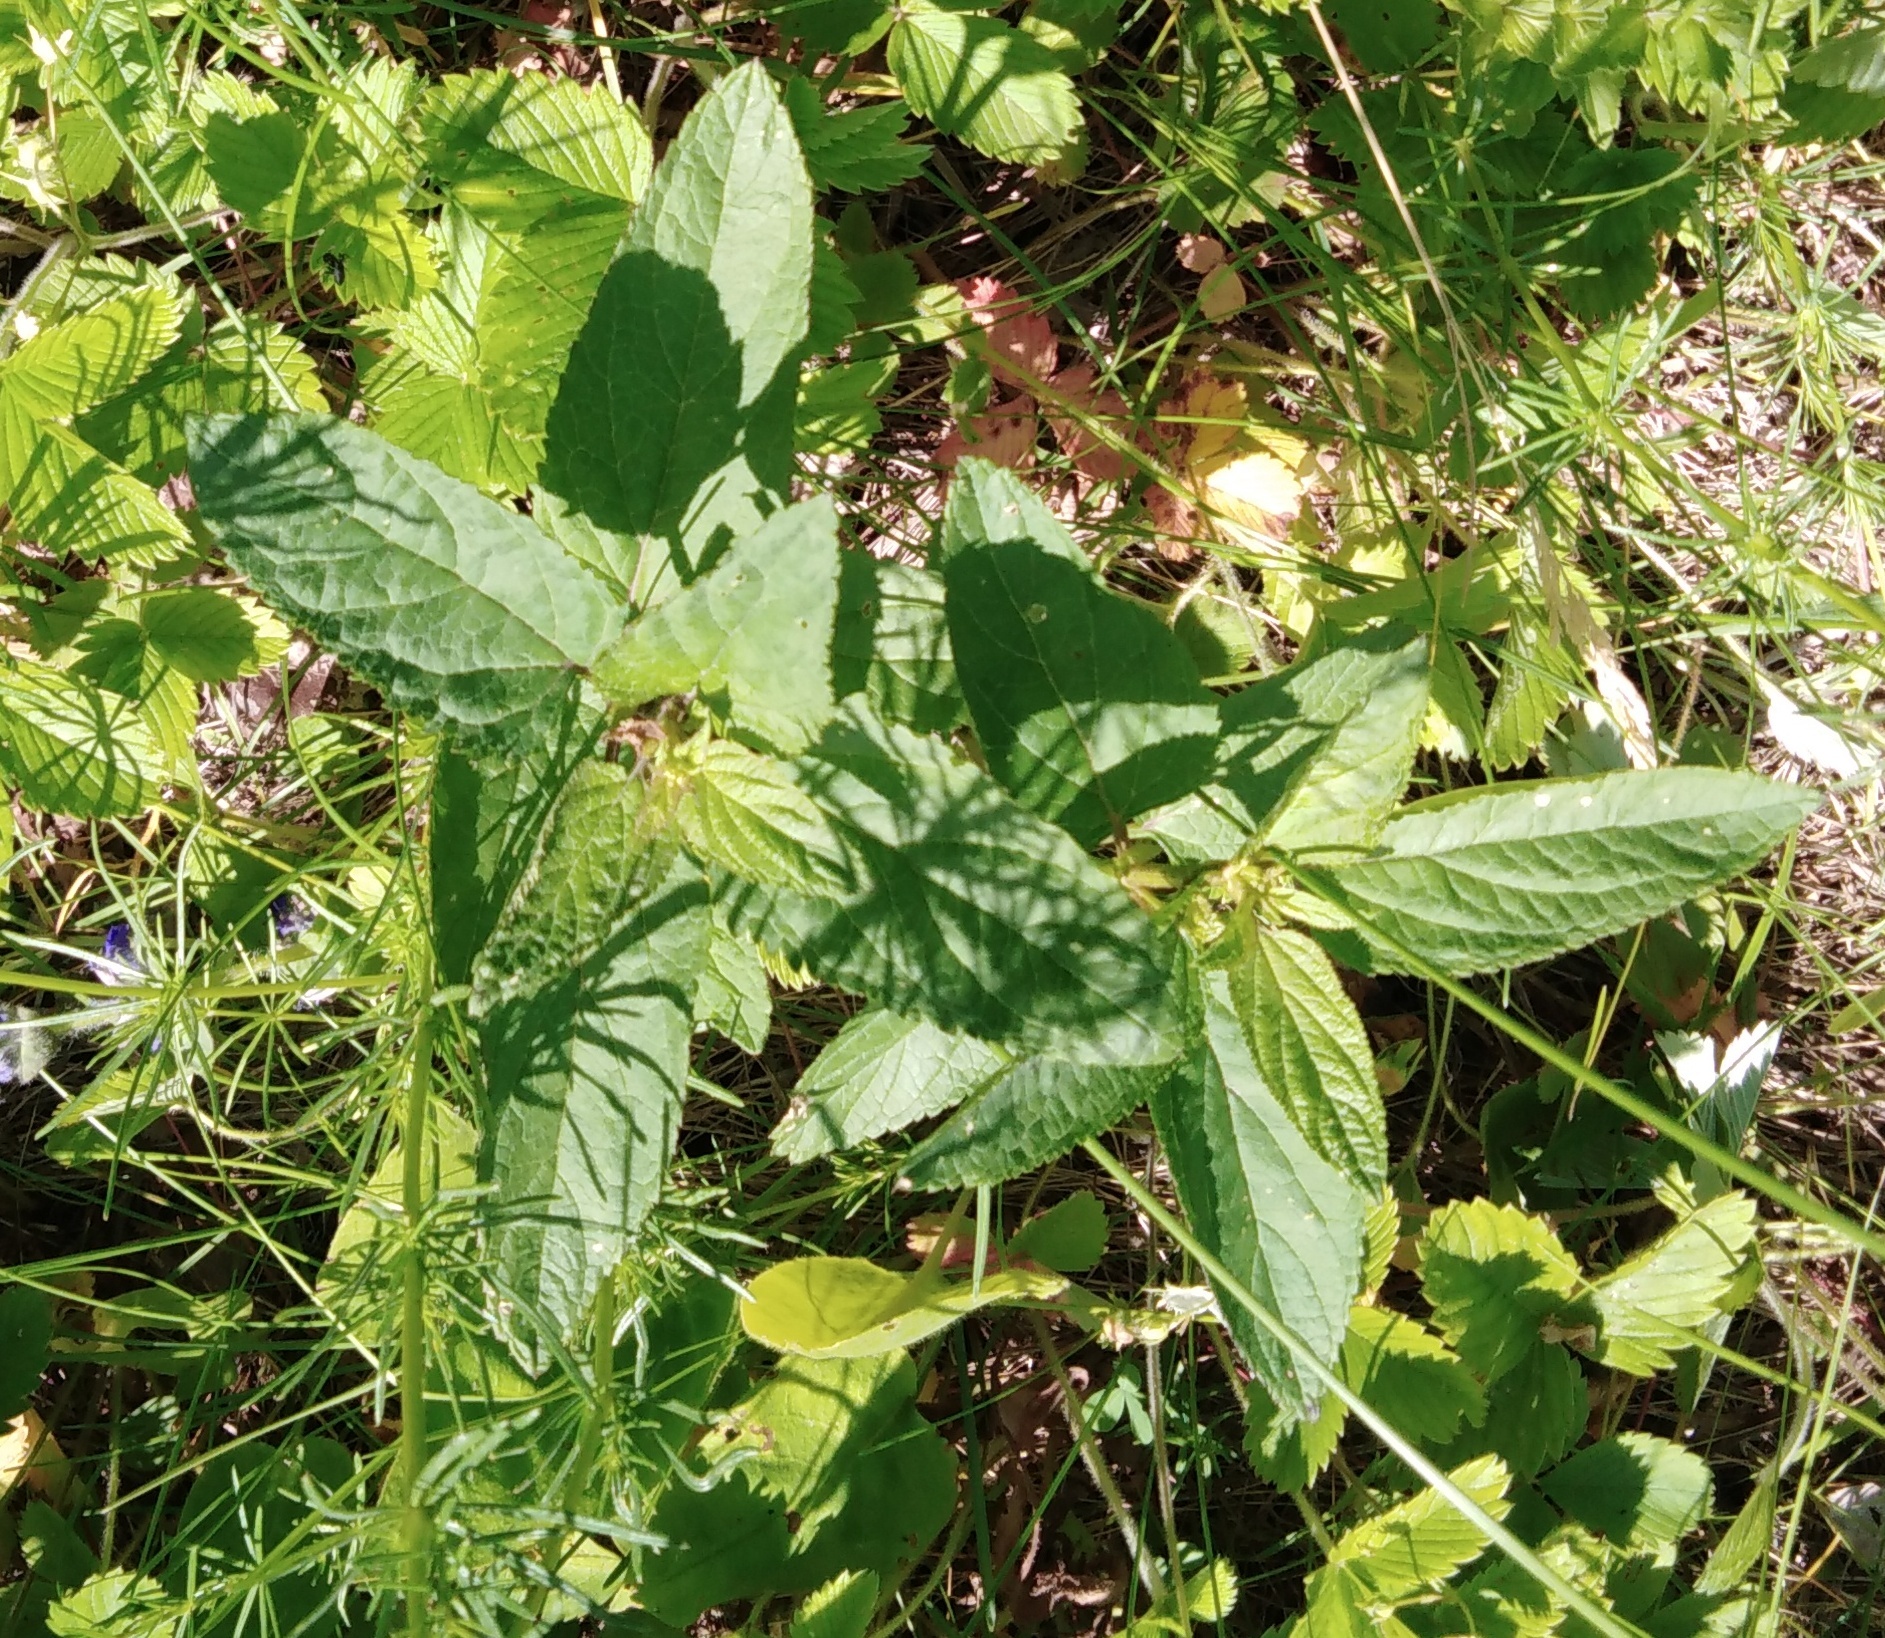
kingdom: Plantae
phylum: Tracheophyta
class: Magnoliopsida
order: Lamiales
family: Scrophulariaceae
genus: Scrophularia
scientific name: Scrophularia nodosa
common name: Common figwort
